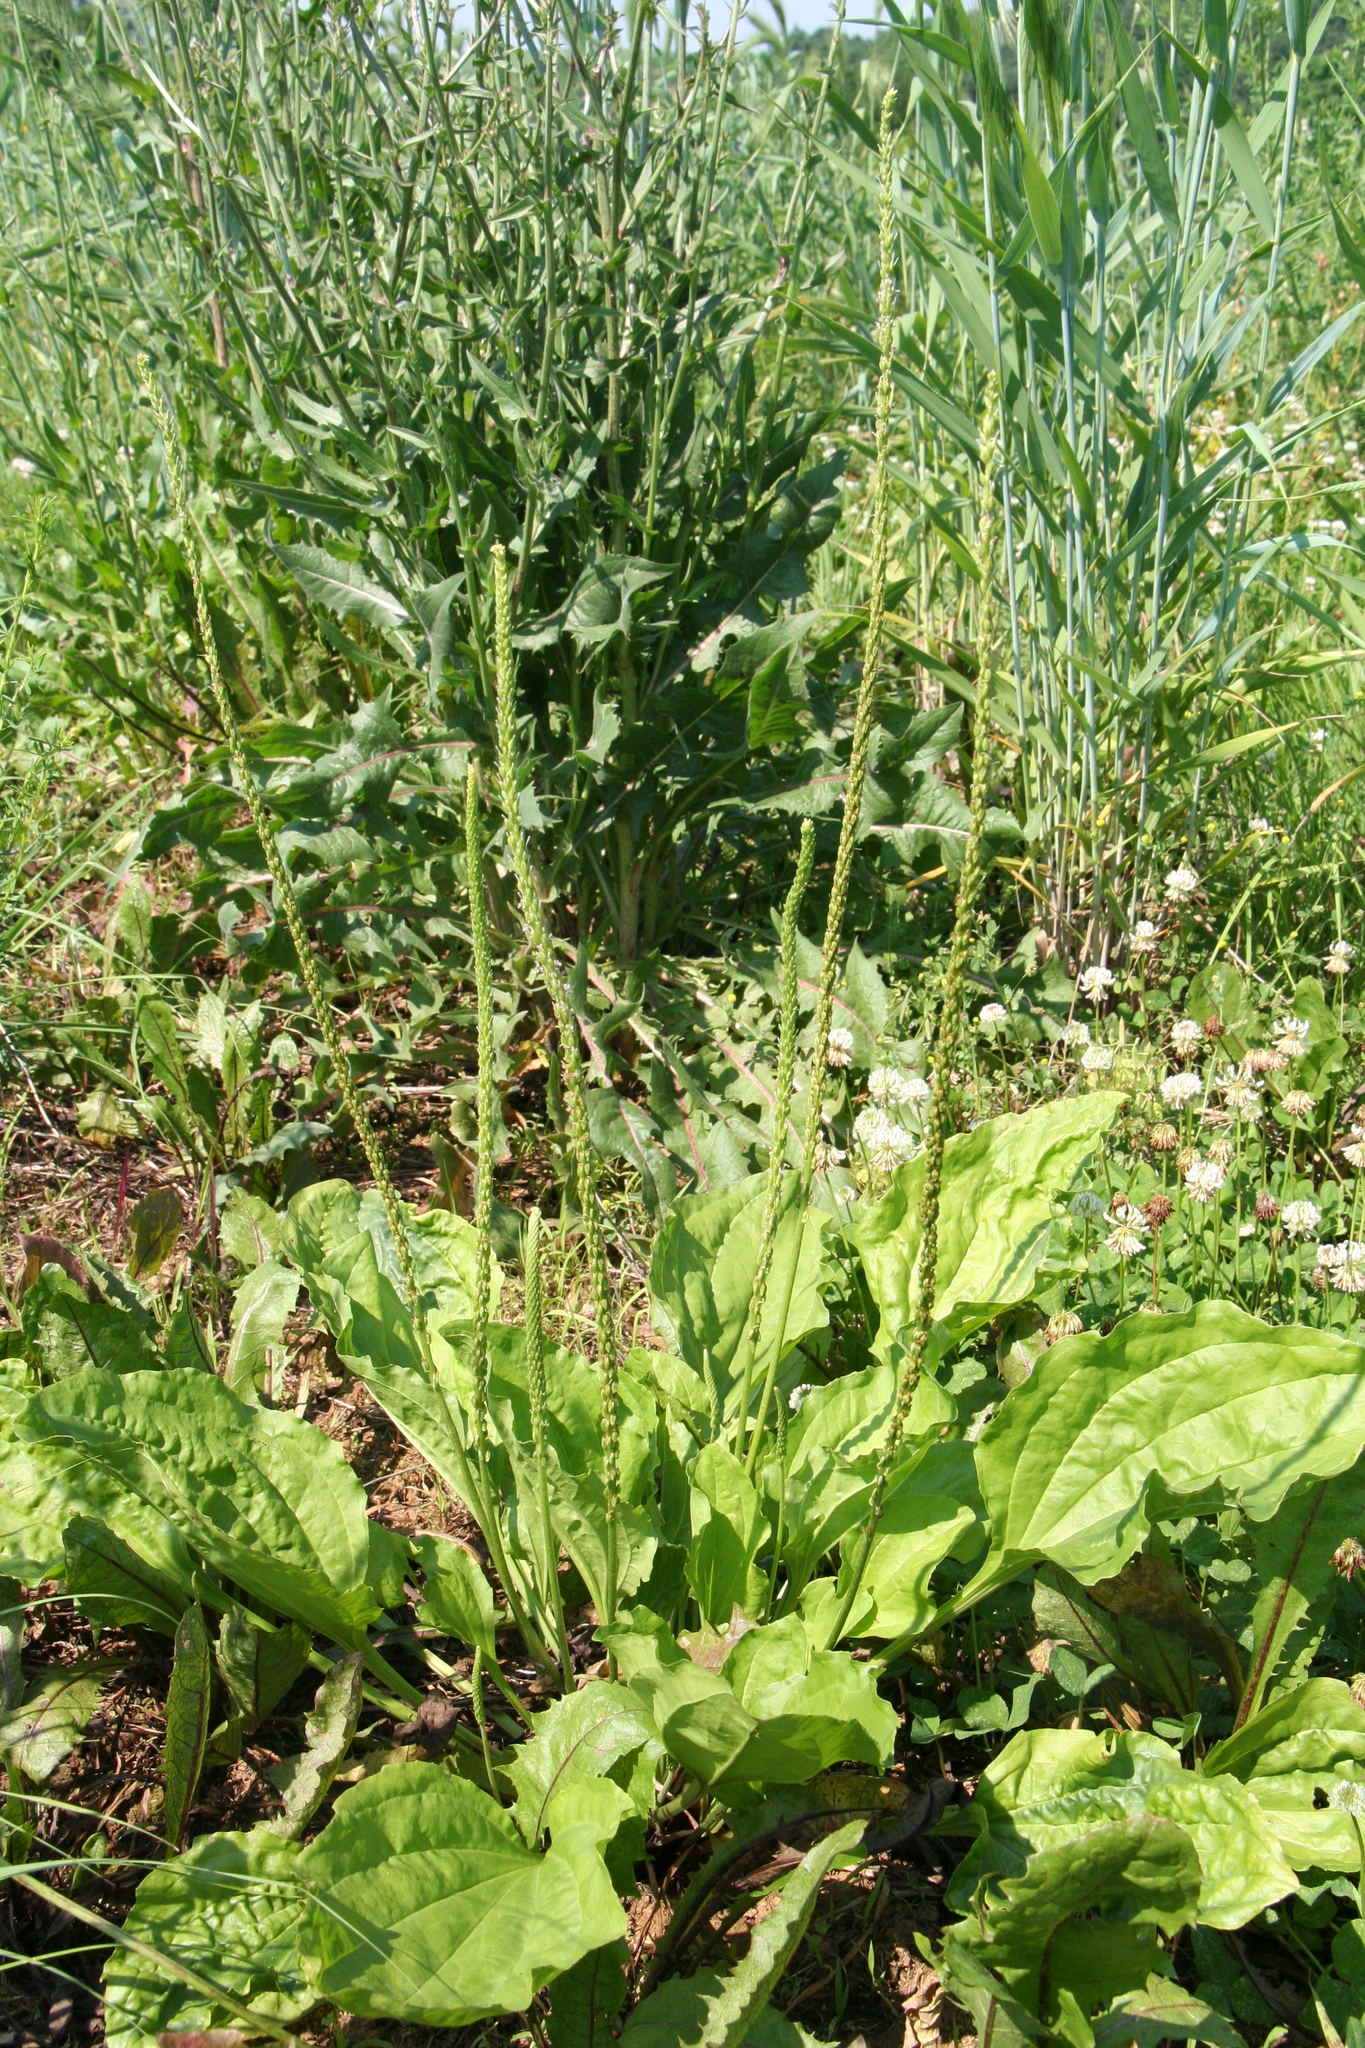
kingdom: Plantae
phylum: Tracheophyta
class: Magnoliopsida
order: Lamiales
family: Plantaginaceae
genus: Plantago
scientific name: Plantago major
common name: Common plantain
